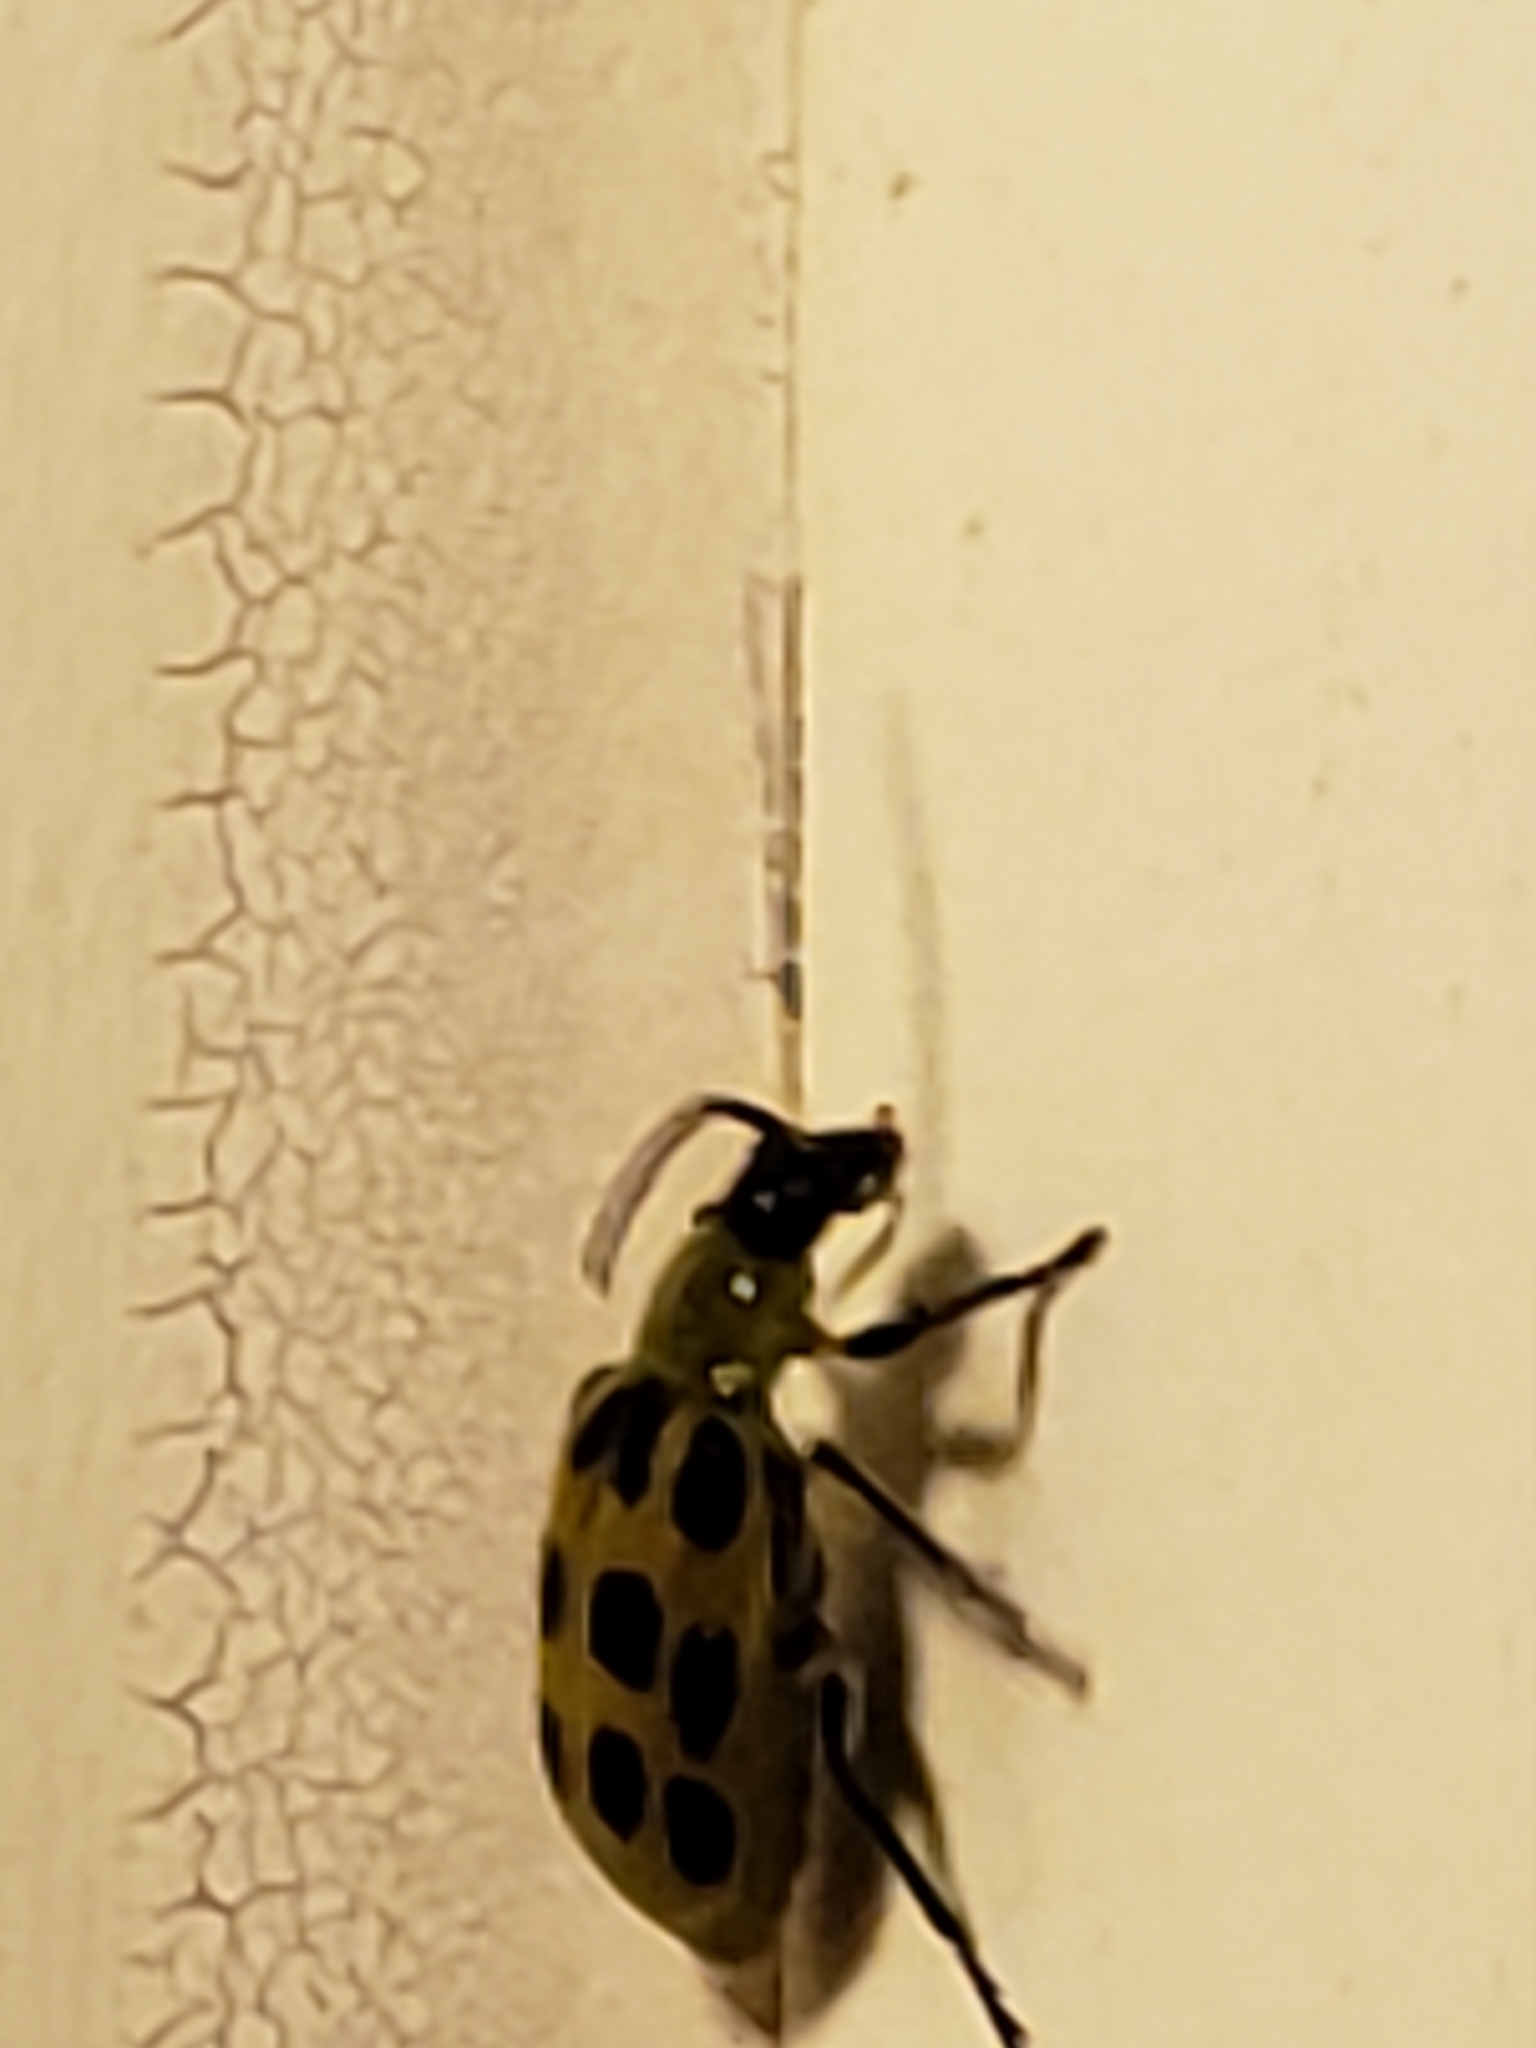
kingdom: Animalia
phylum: Arthropoda
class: Insecta
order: Coleoptera
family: Chrysomelidae
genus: Diabrotica
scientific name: Diabrotica undecimpunctata
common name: Spotted cucumber beetle
